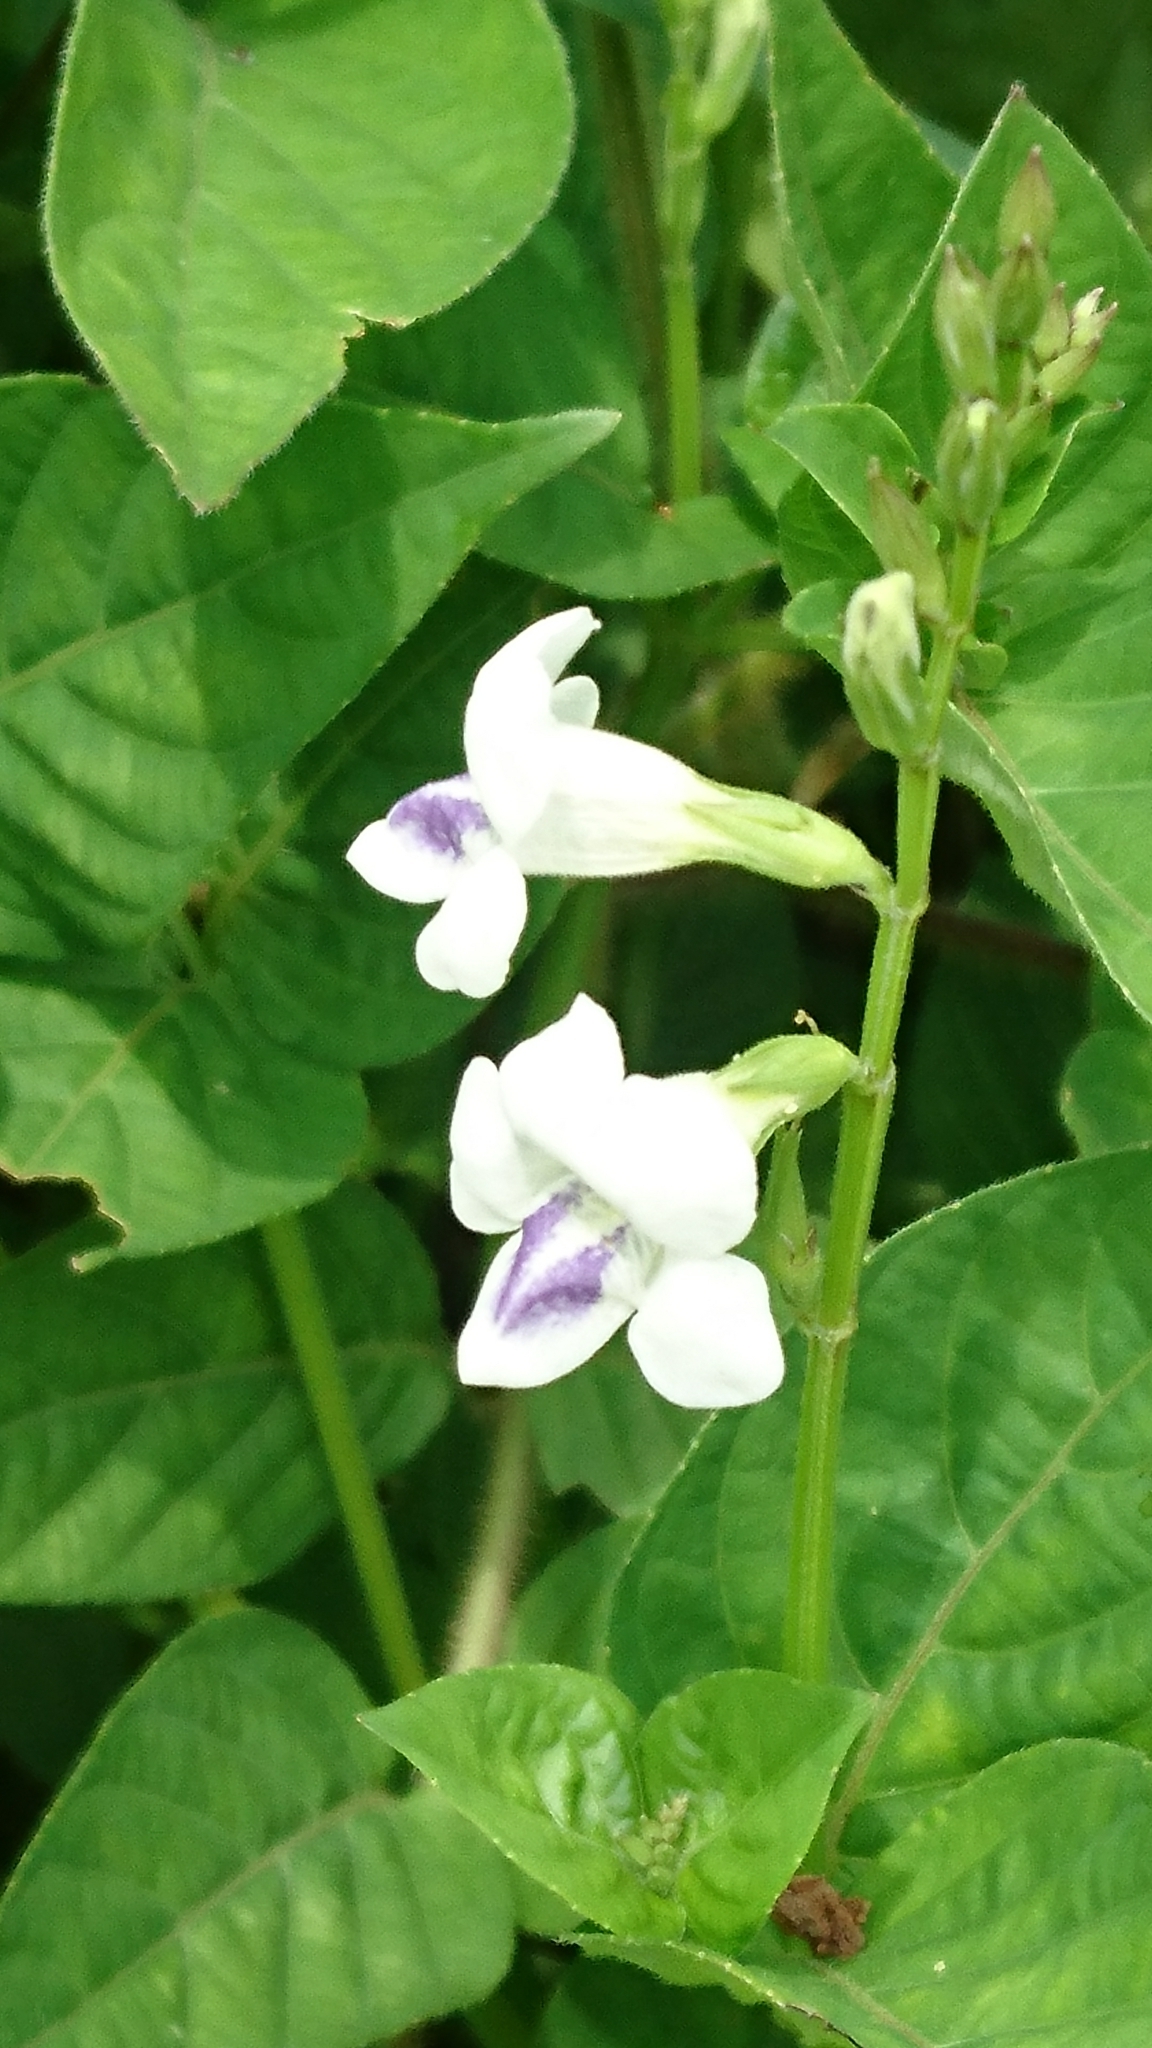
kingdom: Plantae
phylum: Tracheophyta
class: Magnoliopsida
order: Lamiales
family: Acanthaceae
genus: Asystasia
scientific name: Asystasia intrusa
